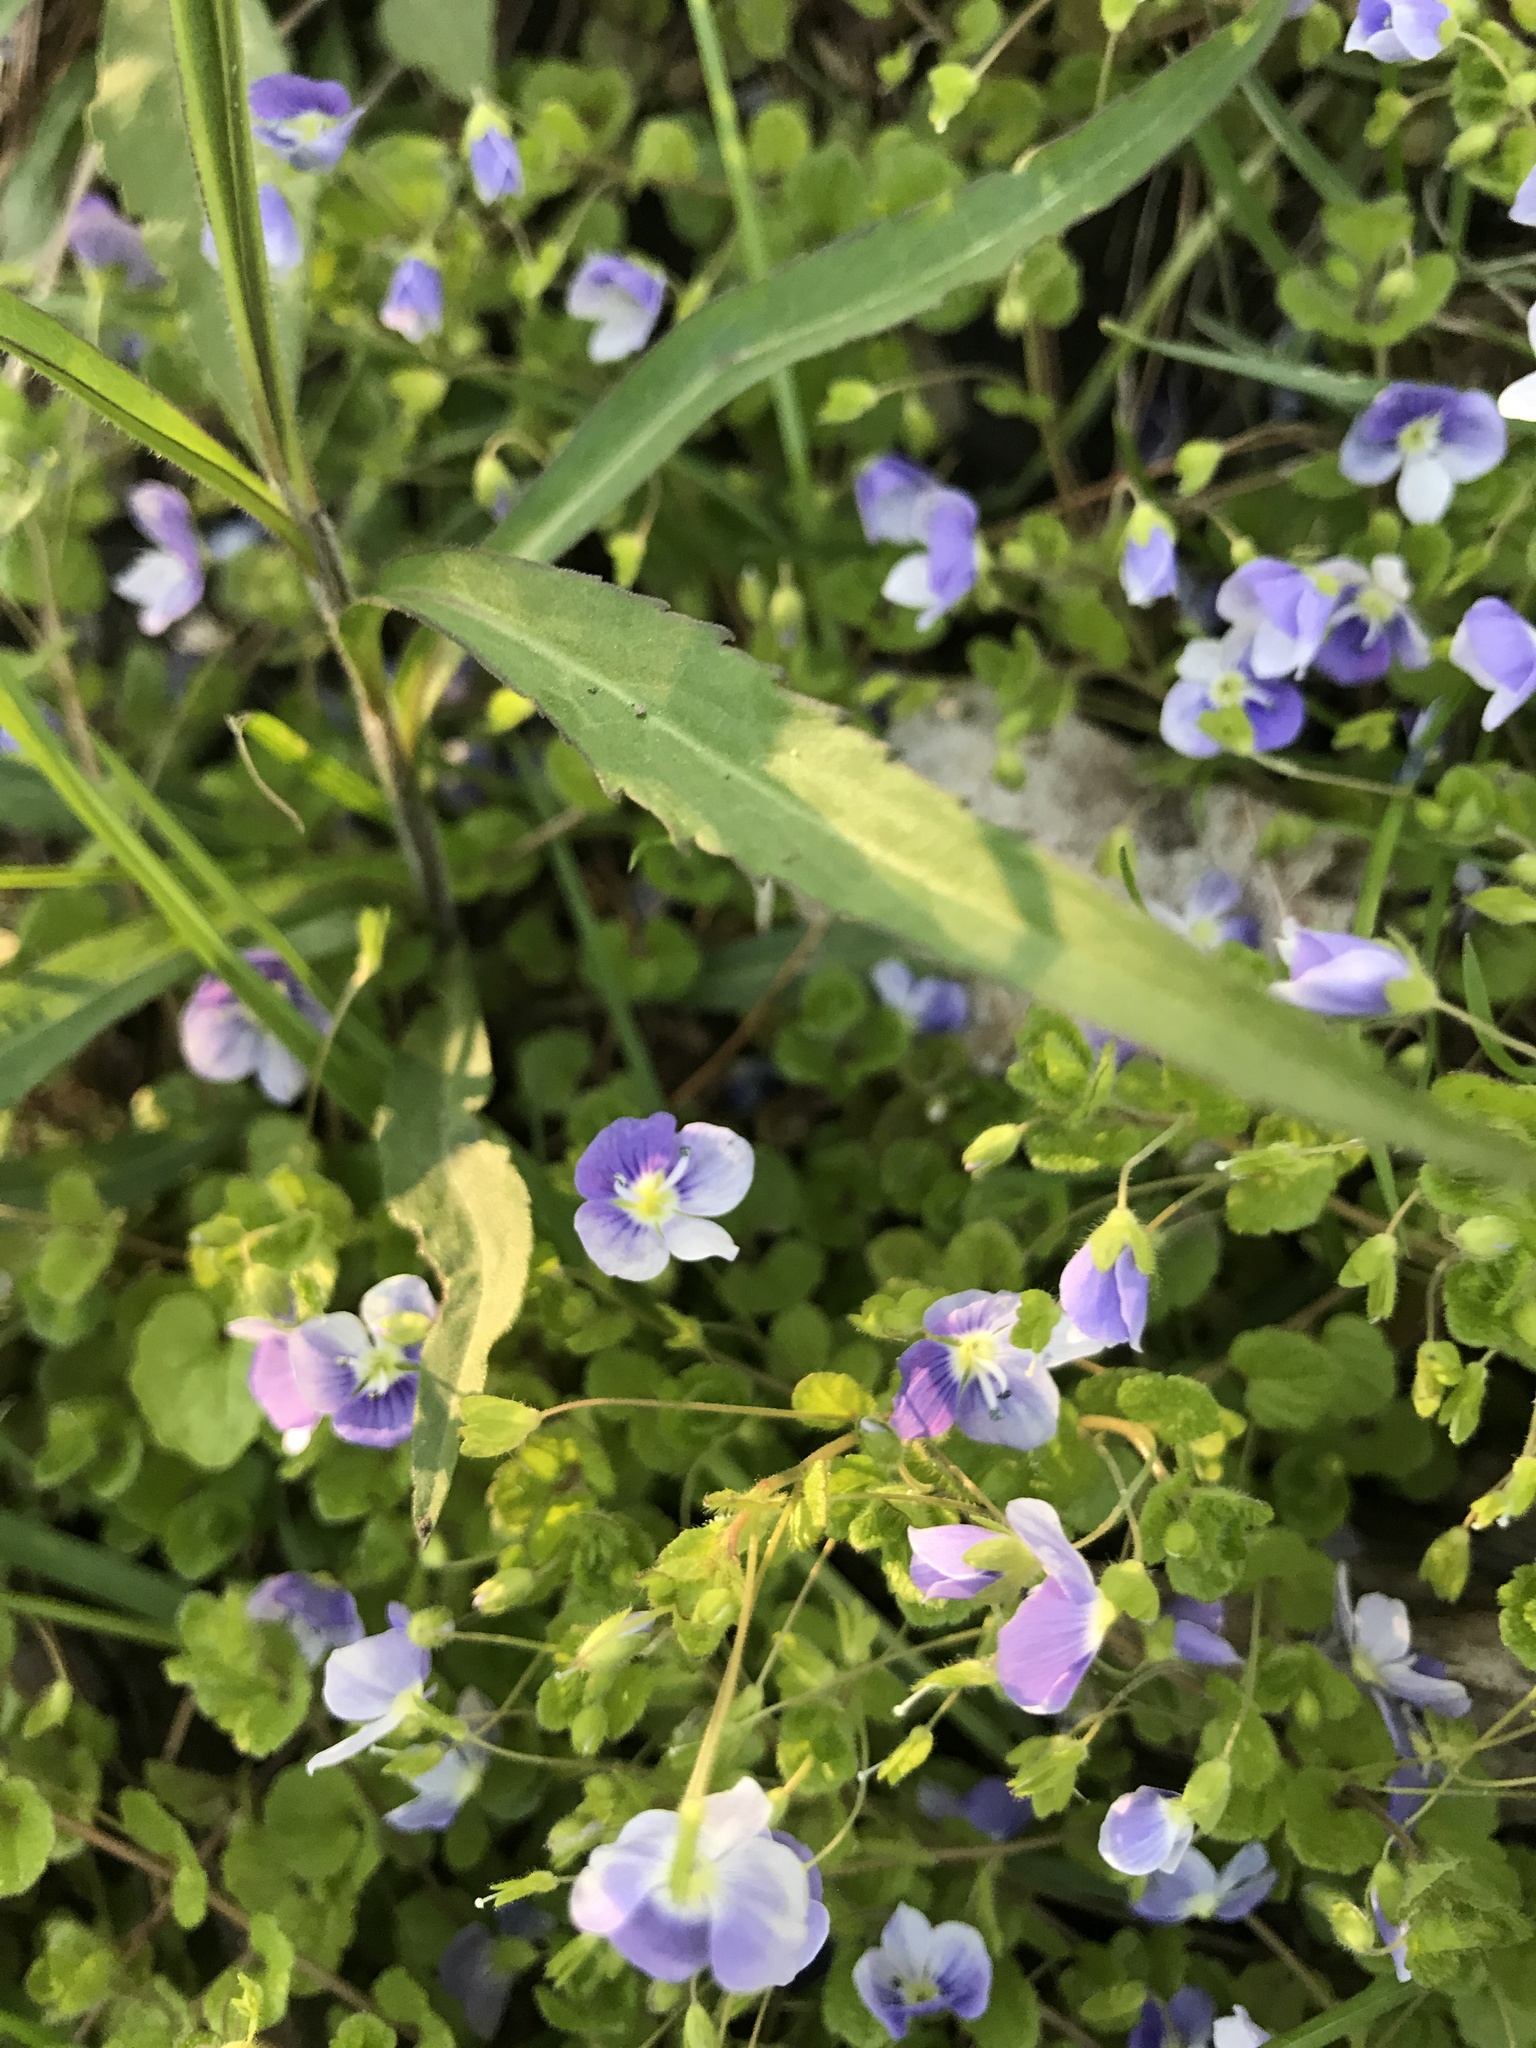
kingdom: Plantae
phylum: Tracheophyta
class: Magnoliopsida
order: Lamiales
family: Plantaginaceae
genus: Veronica
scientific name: Veronica filiformis
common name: Slender speedwell
